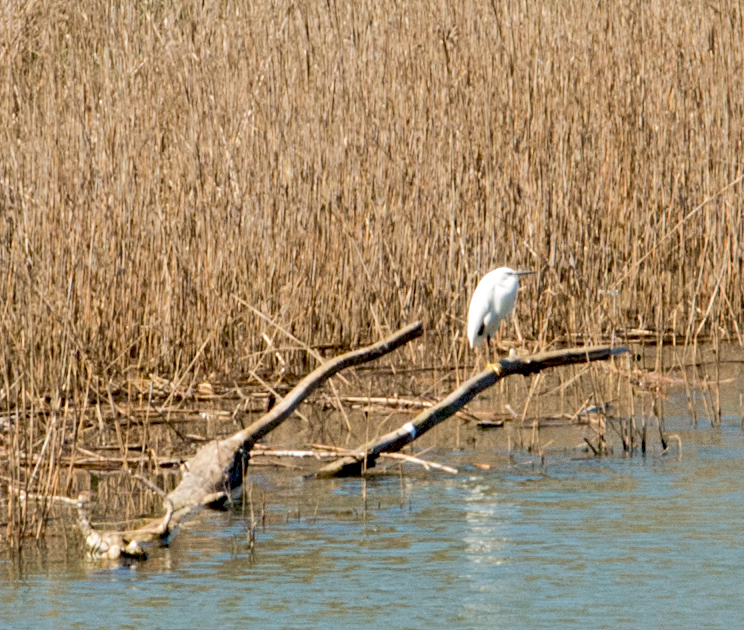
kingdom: Animalia
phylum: Chordata
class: Aves
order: Pelecaniformes
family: Ardeidae
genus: Egretta
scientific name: Egretta garzetta
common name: Little egret
